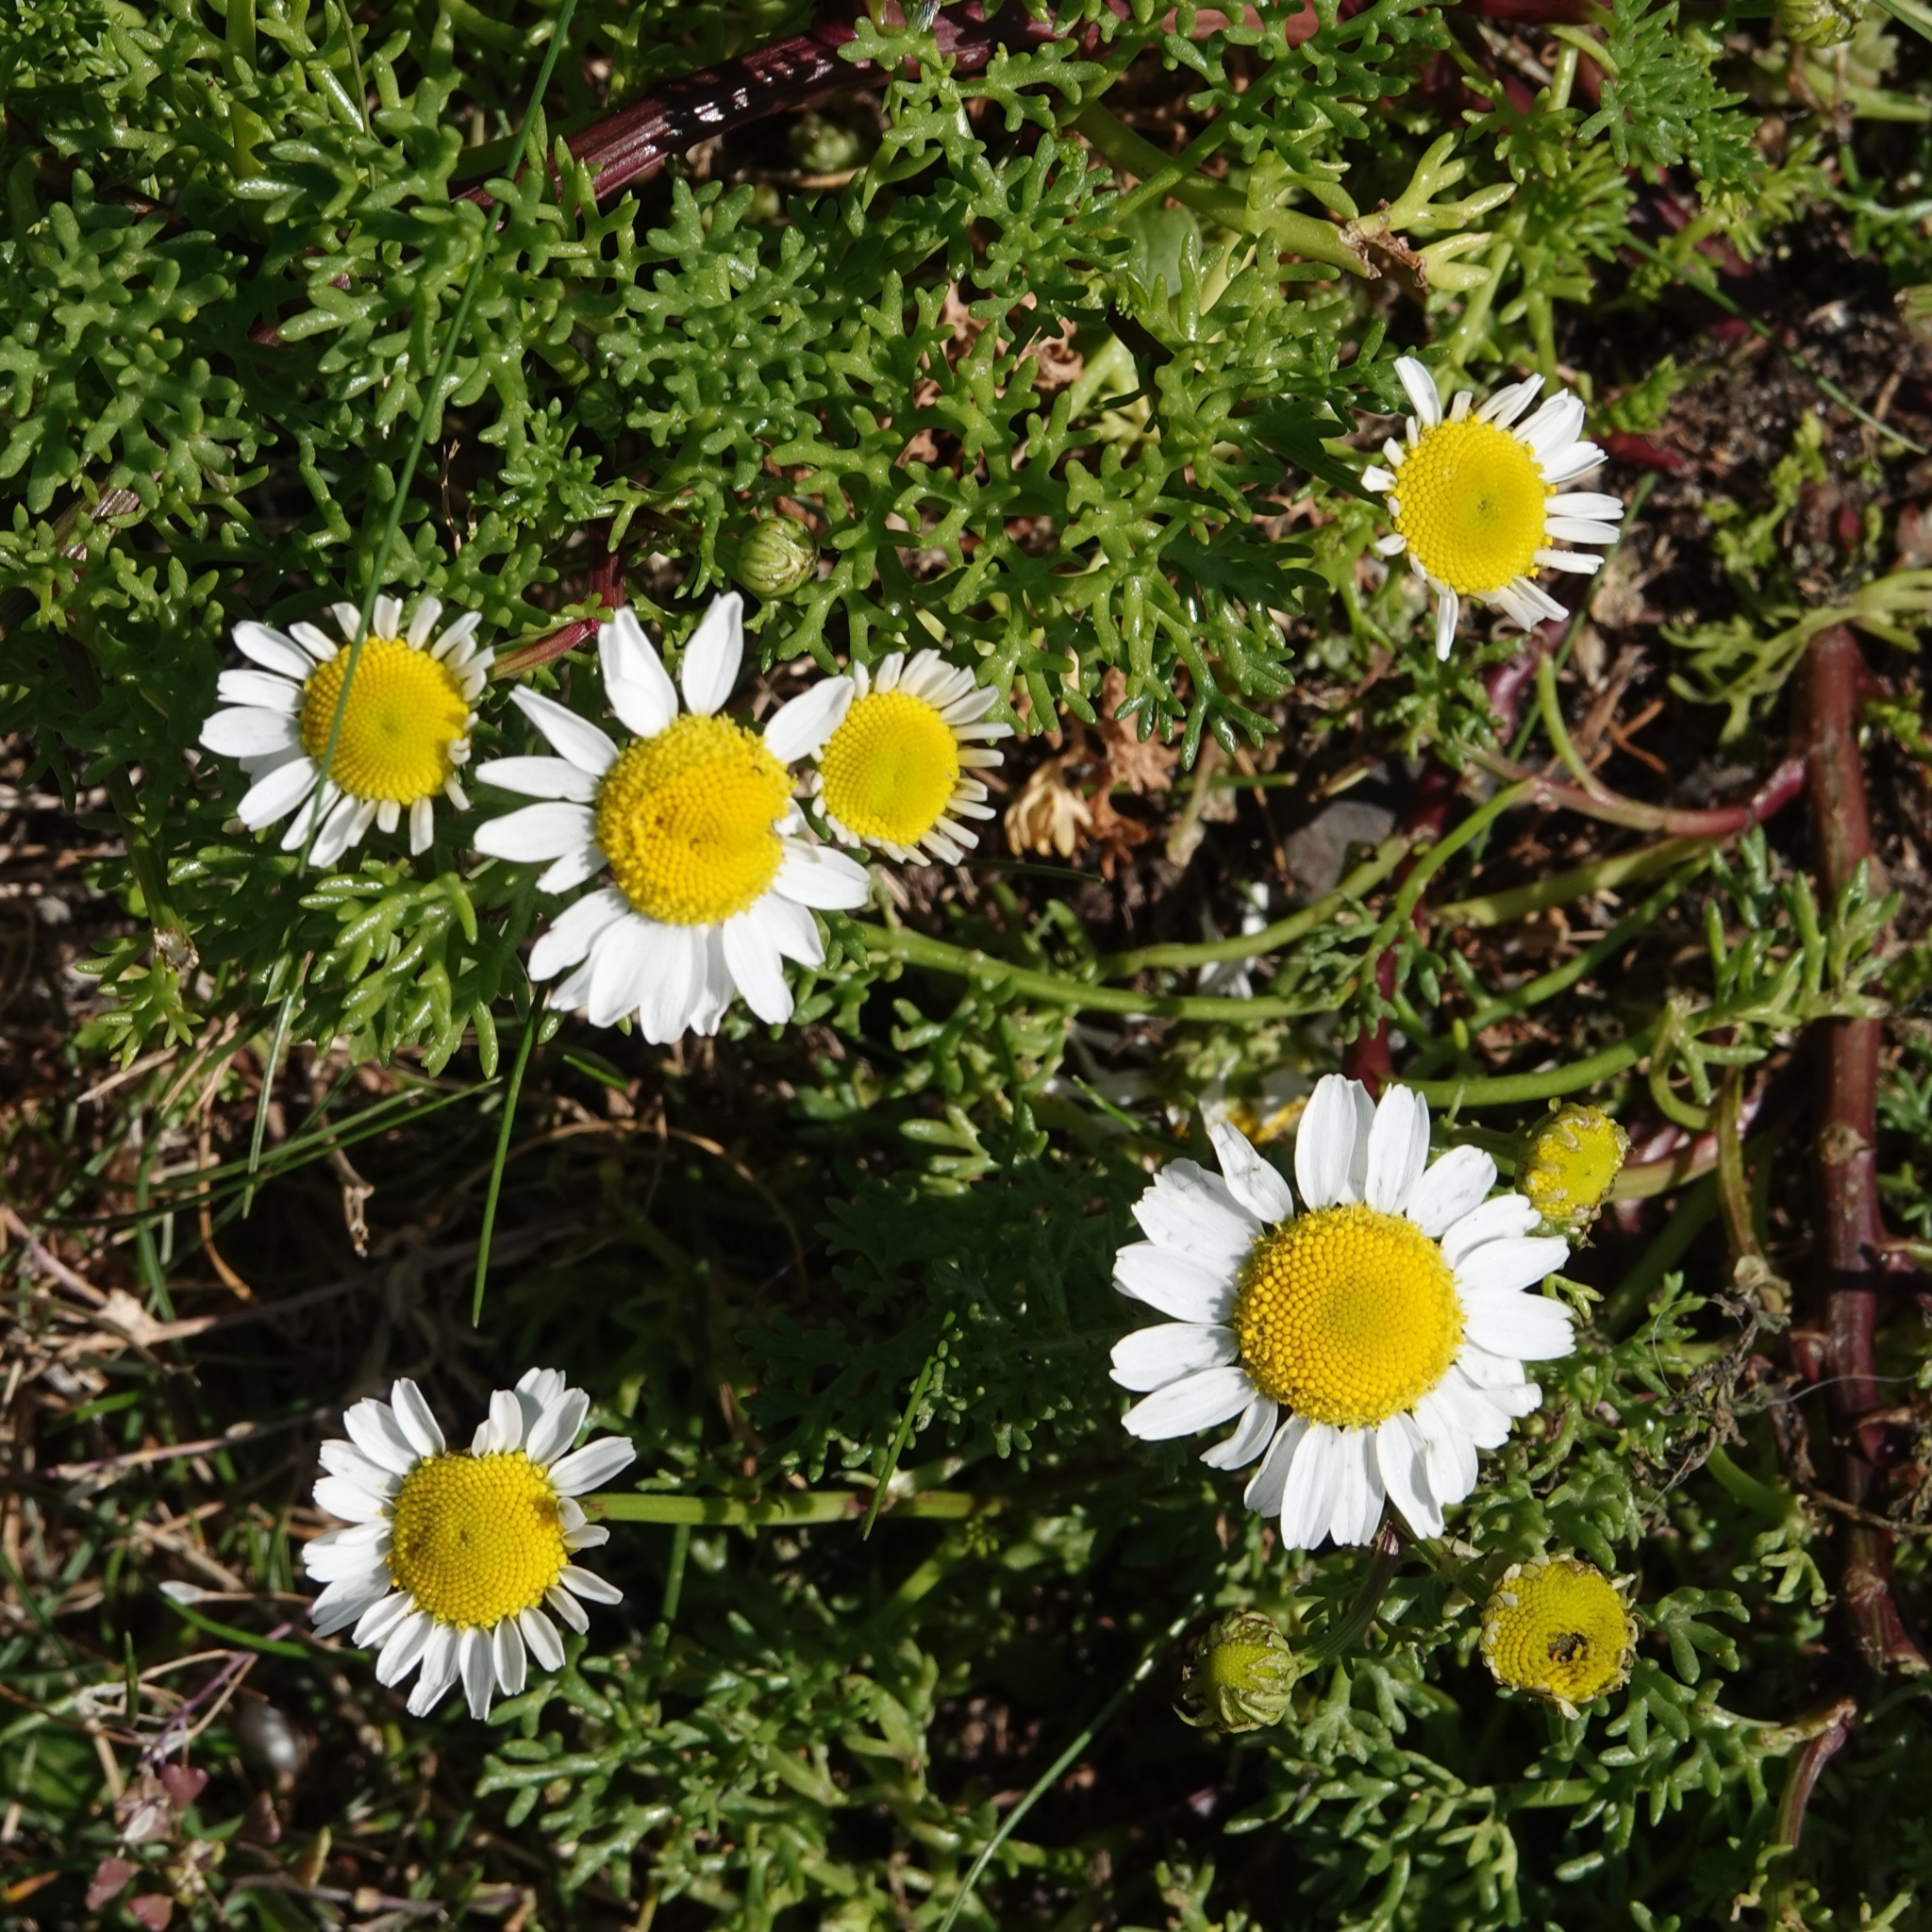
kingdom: Plantae
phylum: Tracheophyta
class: Magnoliopsida
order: Asterales
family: Asteraceae
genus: Tripleurospermum
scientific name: Tripleurospermum maritimum
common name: Sea mayweed
